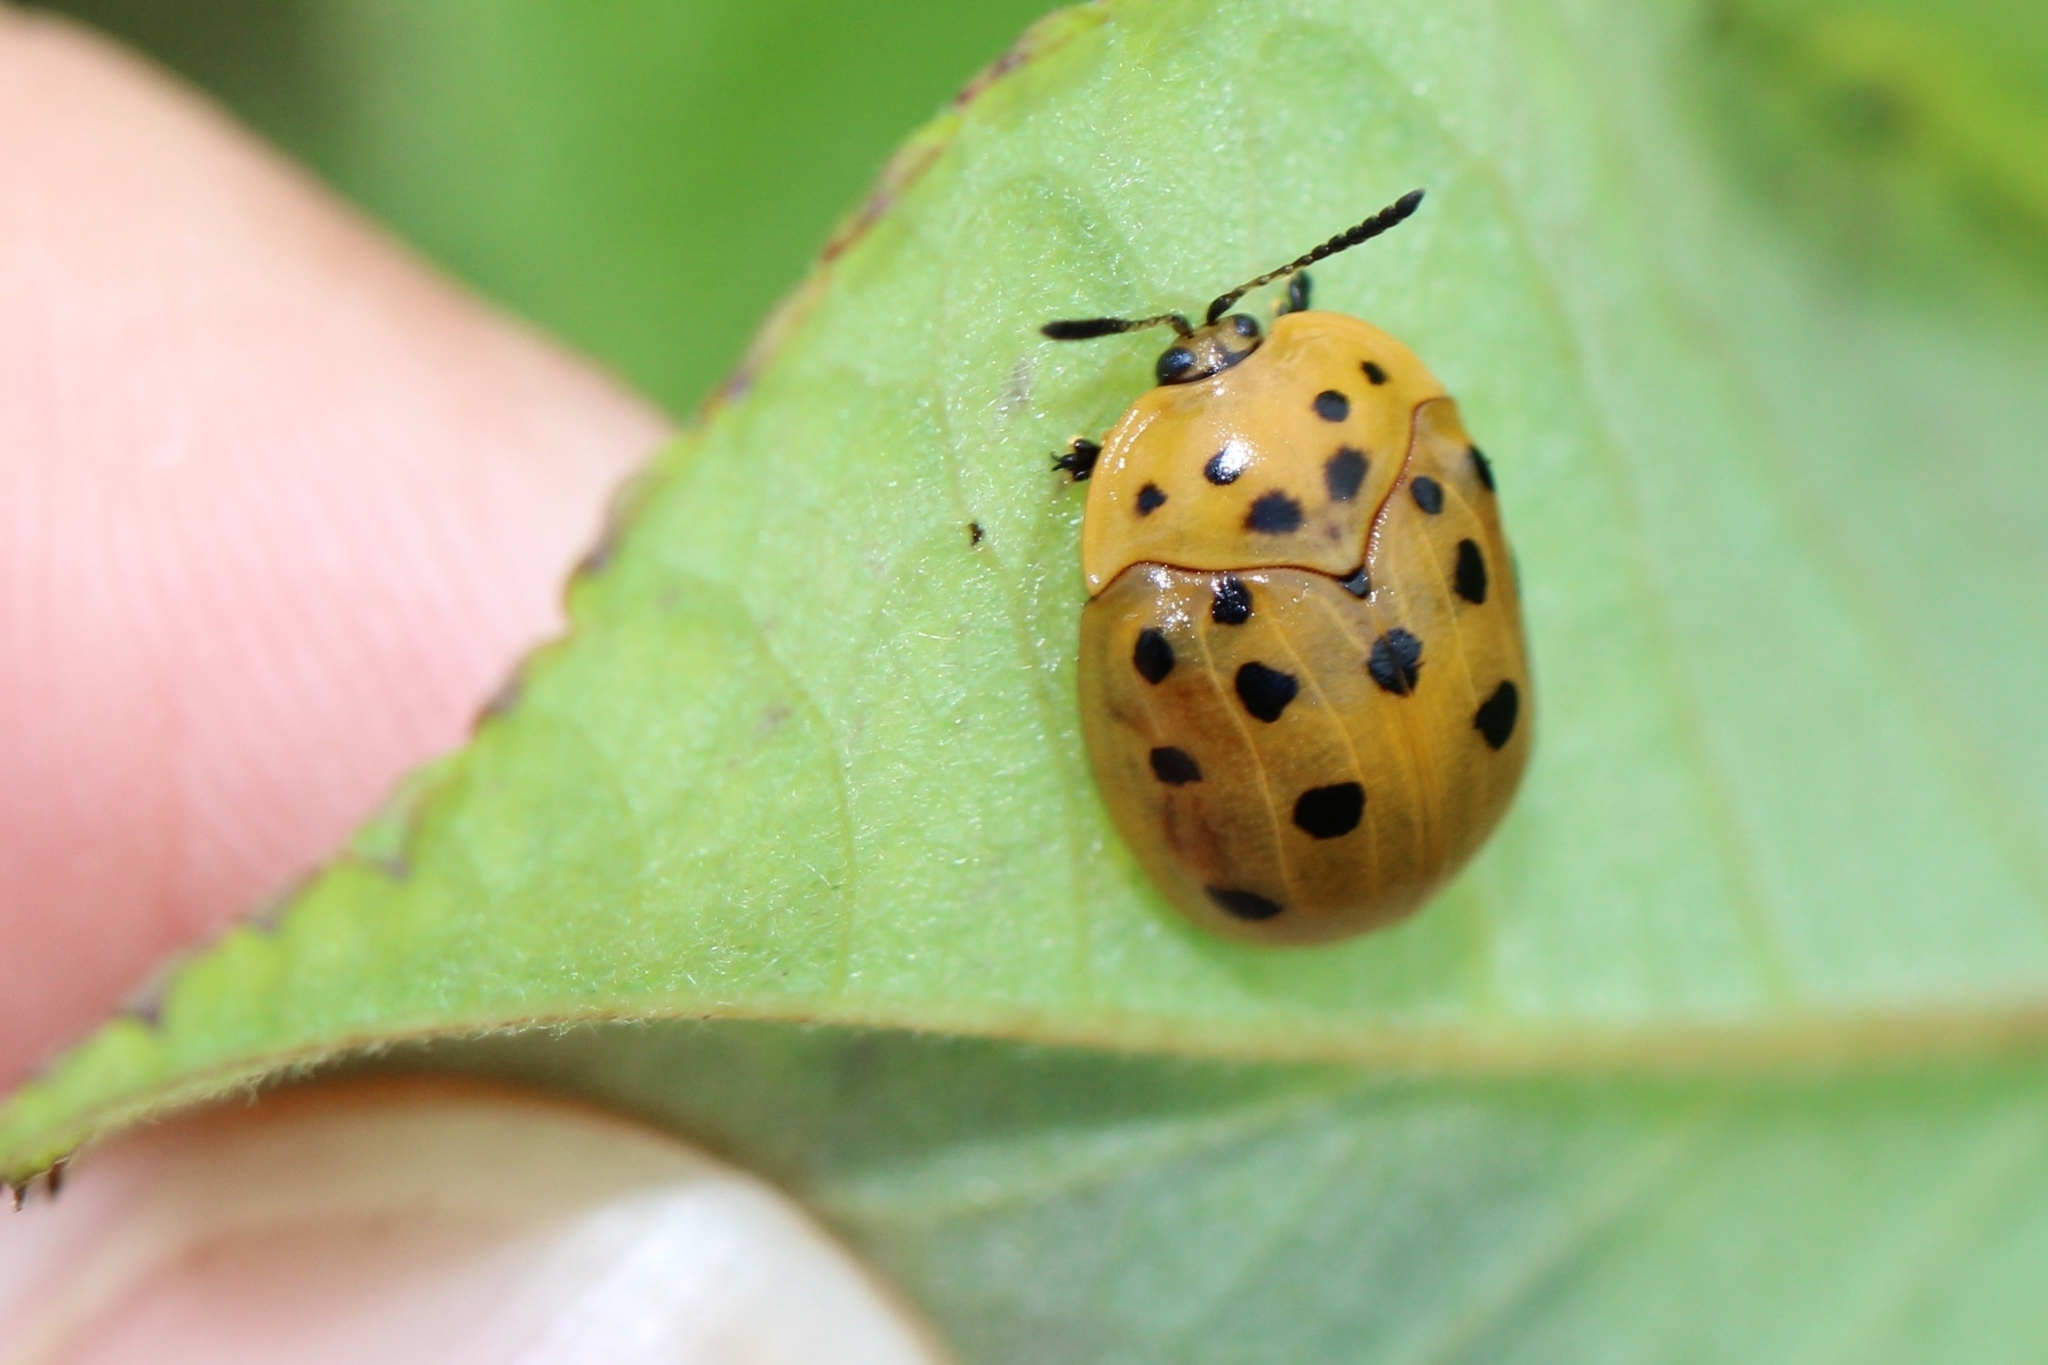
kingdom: Animalia
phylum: Arthropoda
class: Insecta
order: Coleoptera
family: Chrysomelidae
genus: Chelymorpha
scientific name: Chelymorpha cassidea
